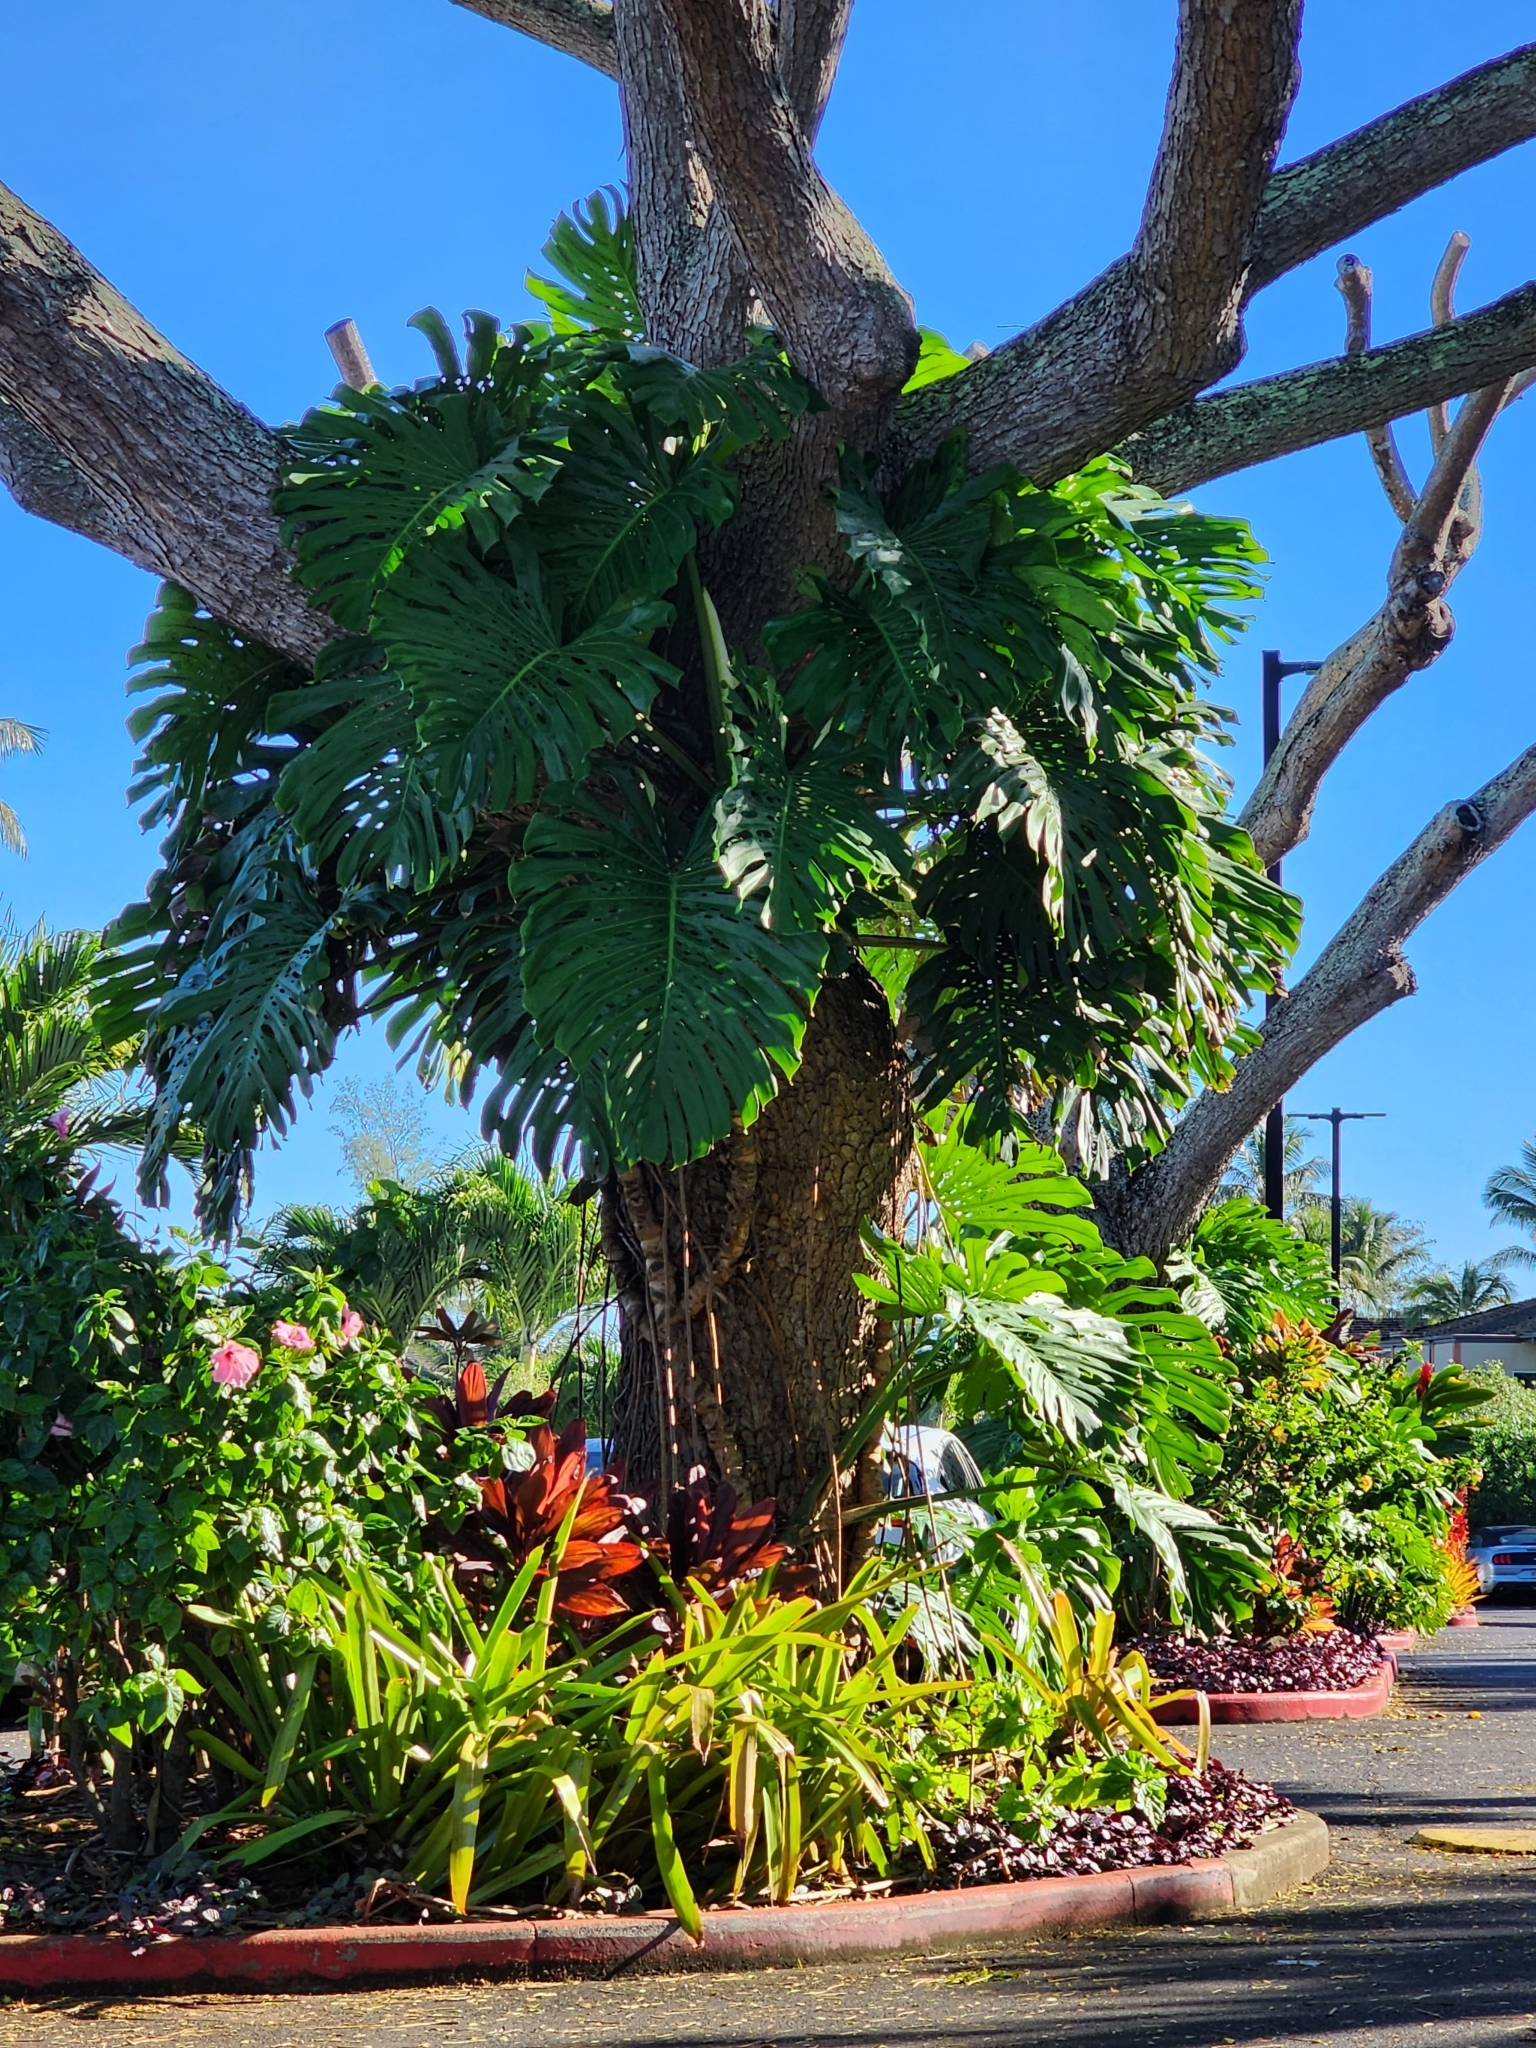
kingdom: Plantae
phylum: Tracheophyta
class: Liliopsida
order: Alismatales
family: Araceae
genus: Monstera
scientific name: Monstera deliciosa
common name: Cut-leaf-philodendron
